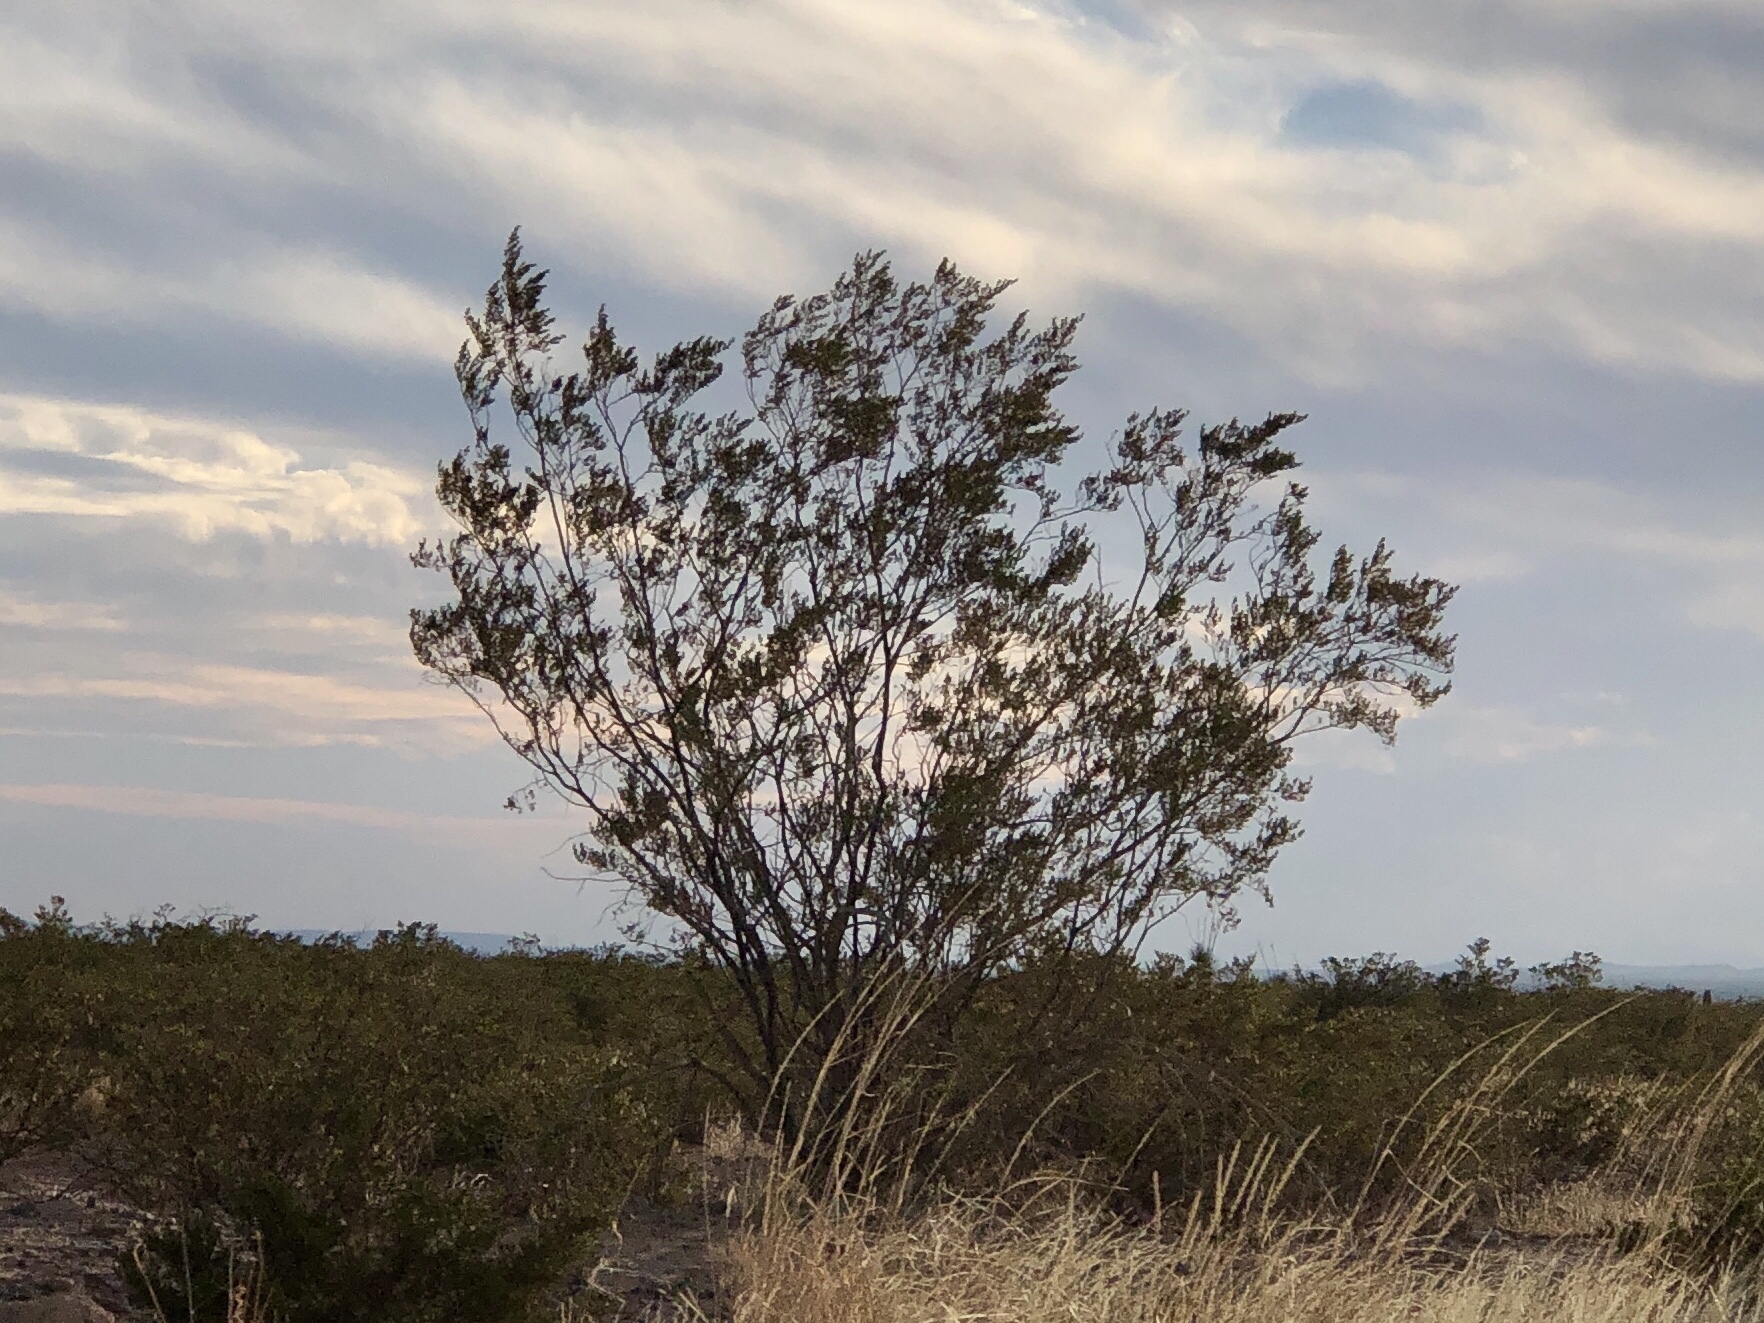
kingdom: Plantae
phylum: Tracheophyta
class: Magnoliopsida
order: Zygophyllales
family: Zygophyllaceae
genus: Larrea
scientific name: Larrea tridentata
